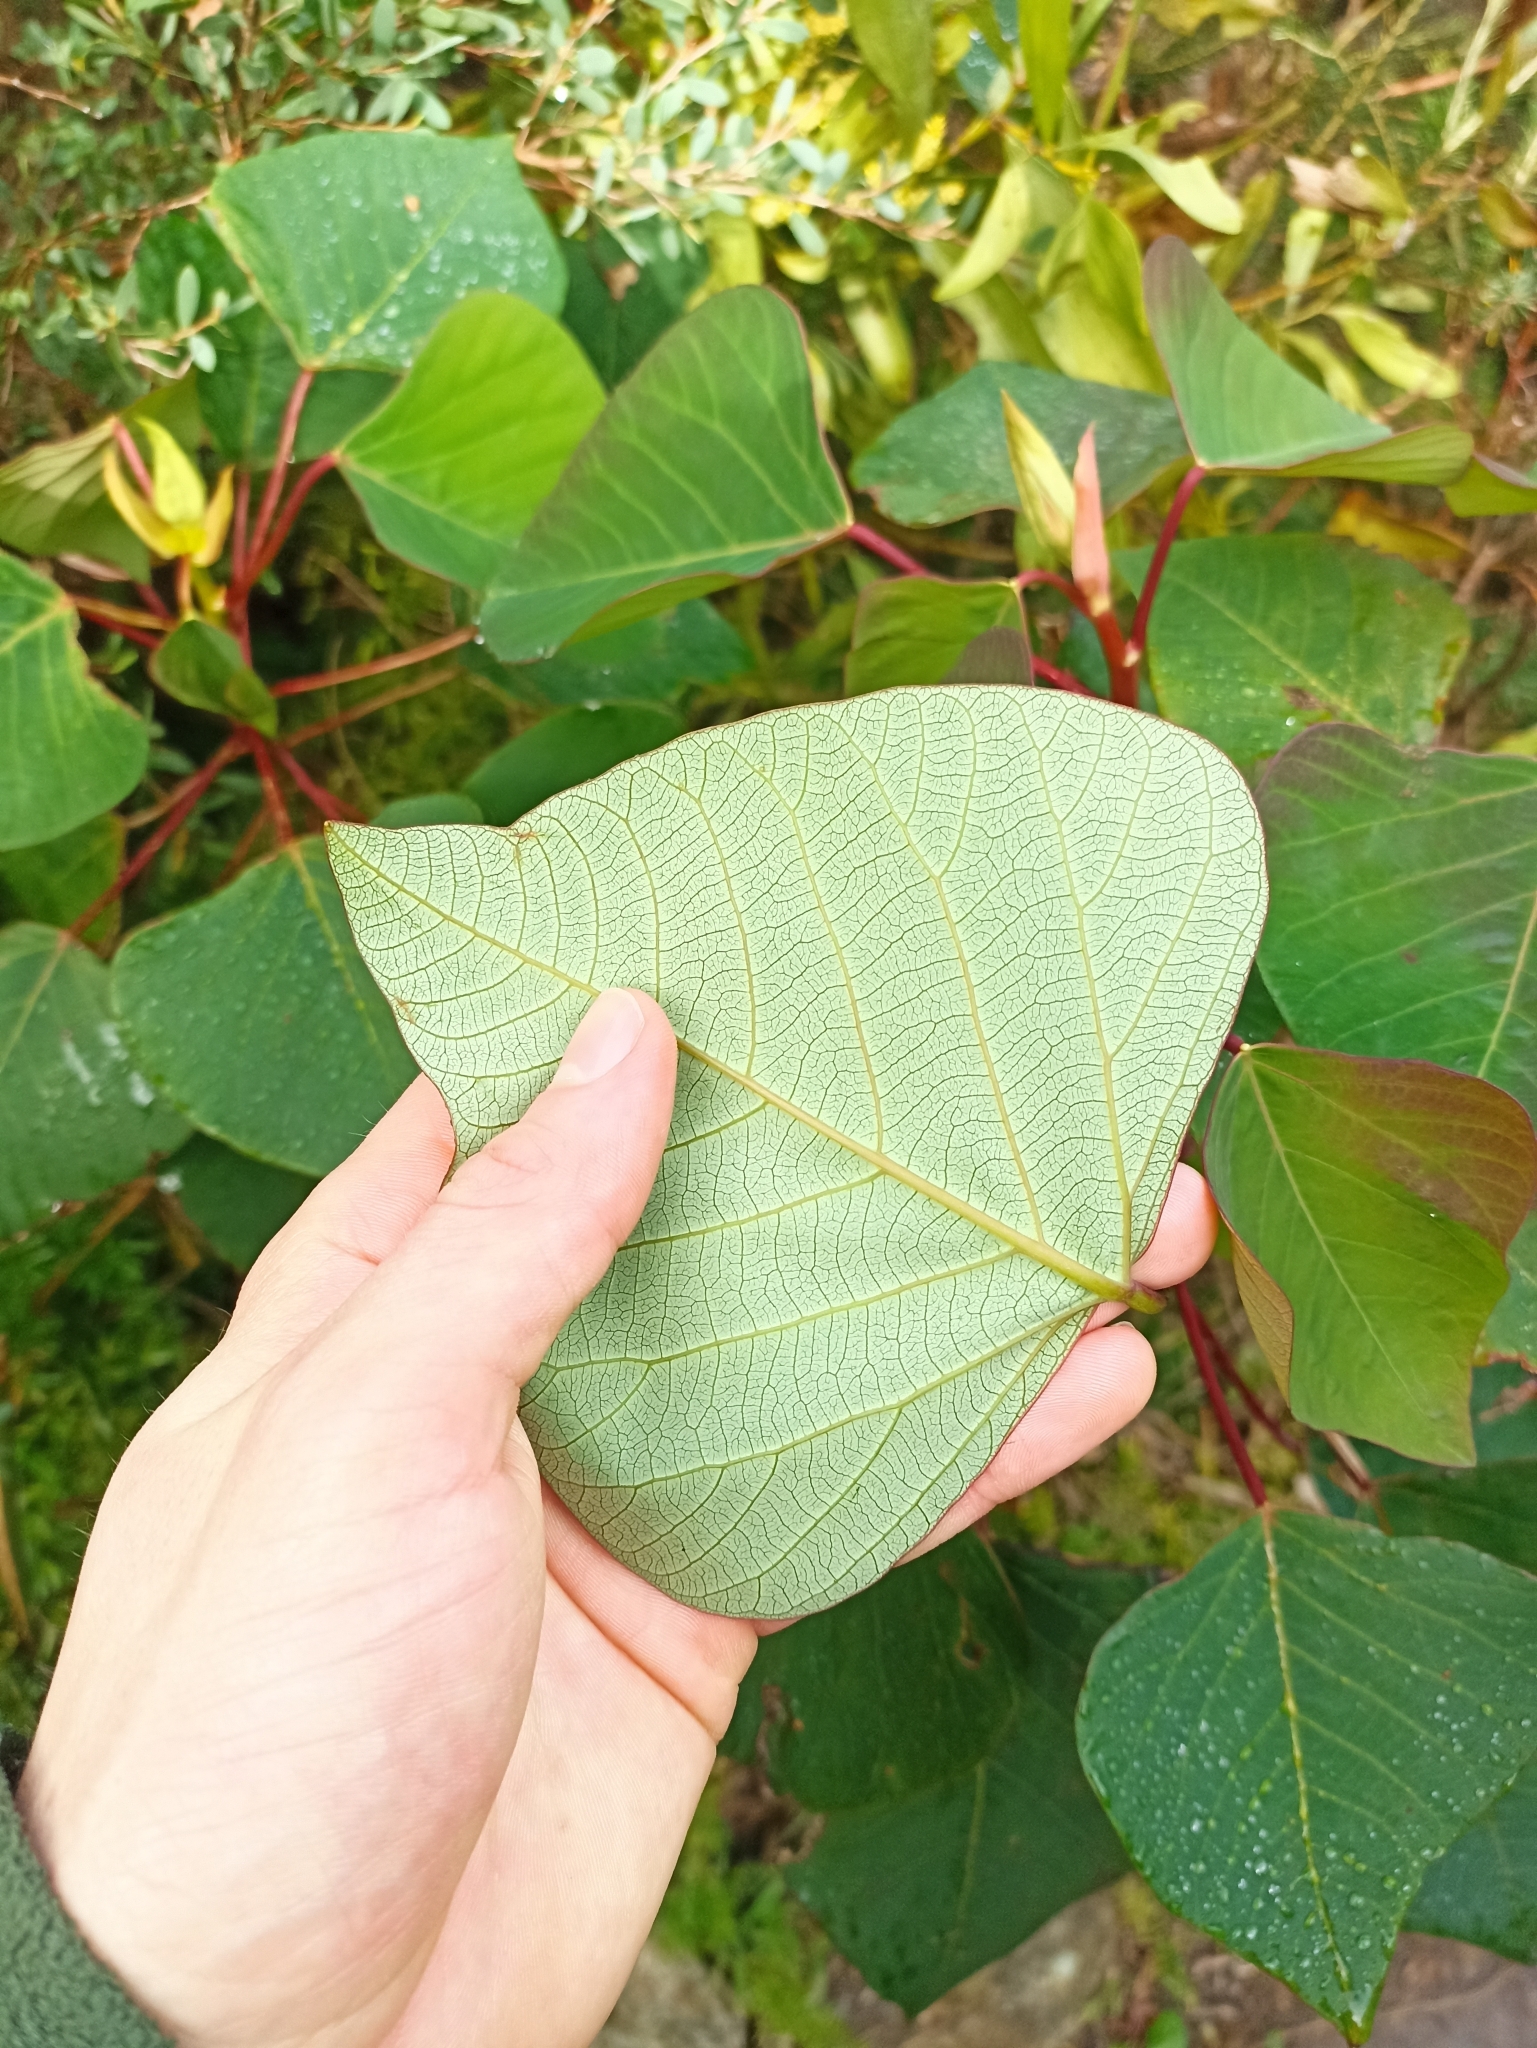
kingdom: Plantae
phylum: Tracheophyta
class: Magnoliopsida
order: Malpighiales
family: Euphorbiaceae
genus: Homalanthus
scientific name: Homalanthus populifolius
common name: Queensland poplar
